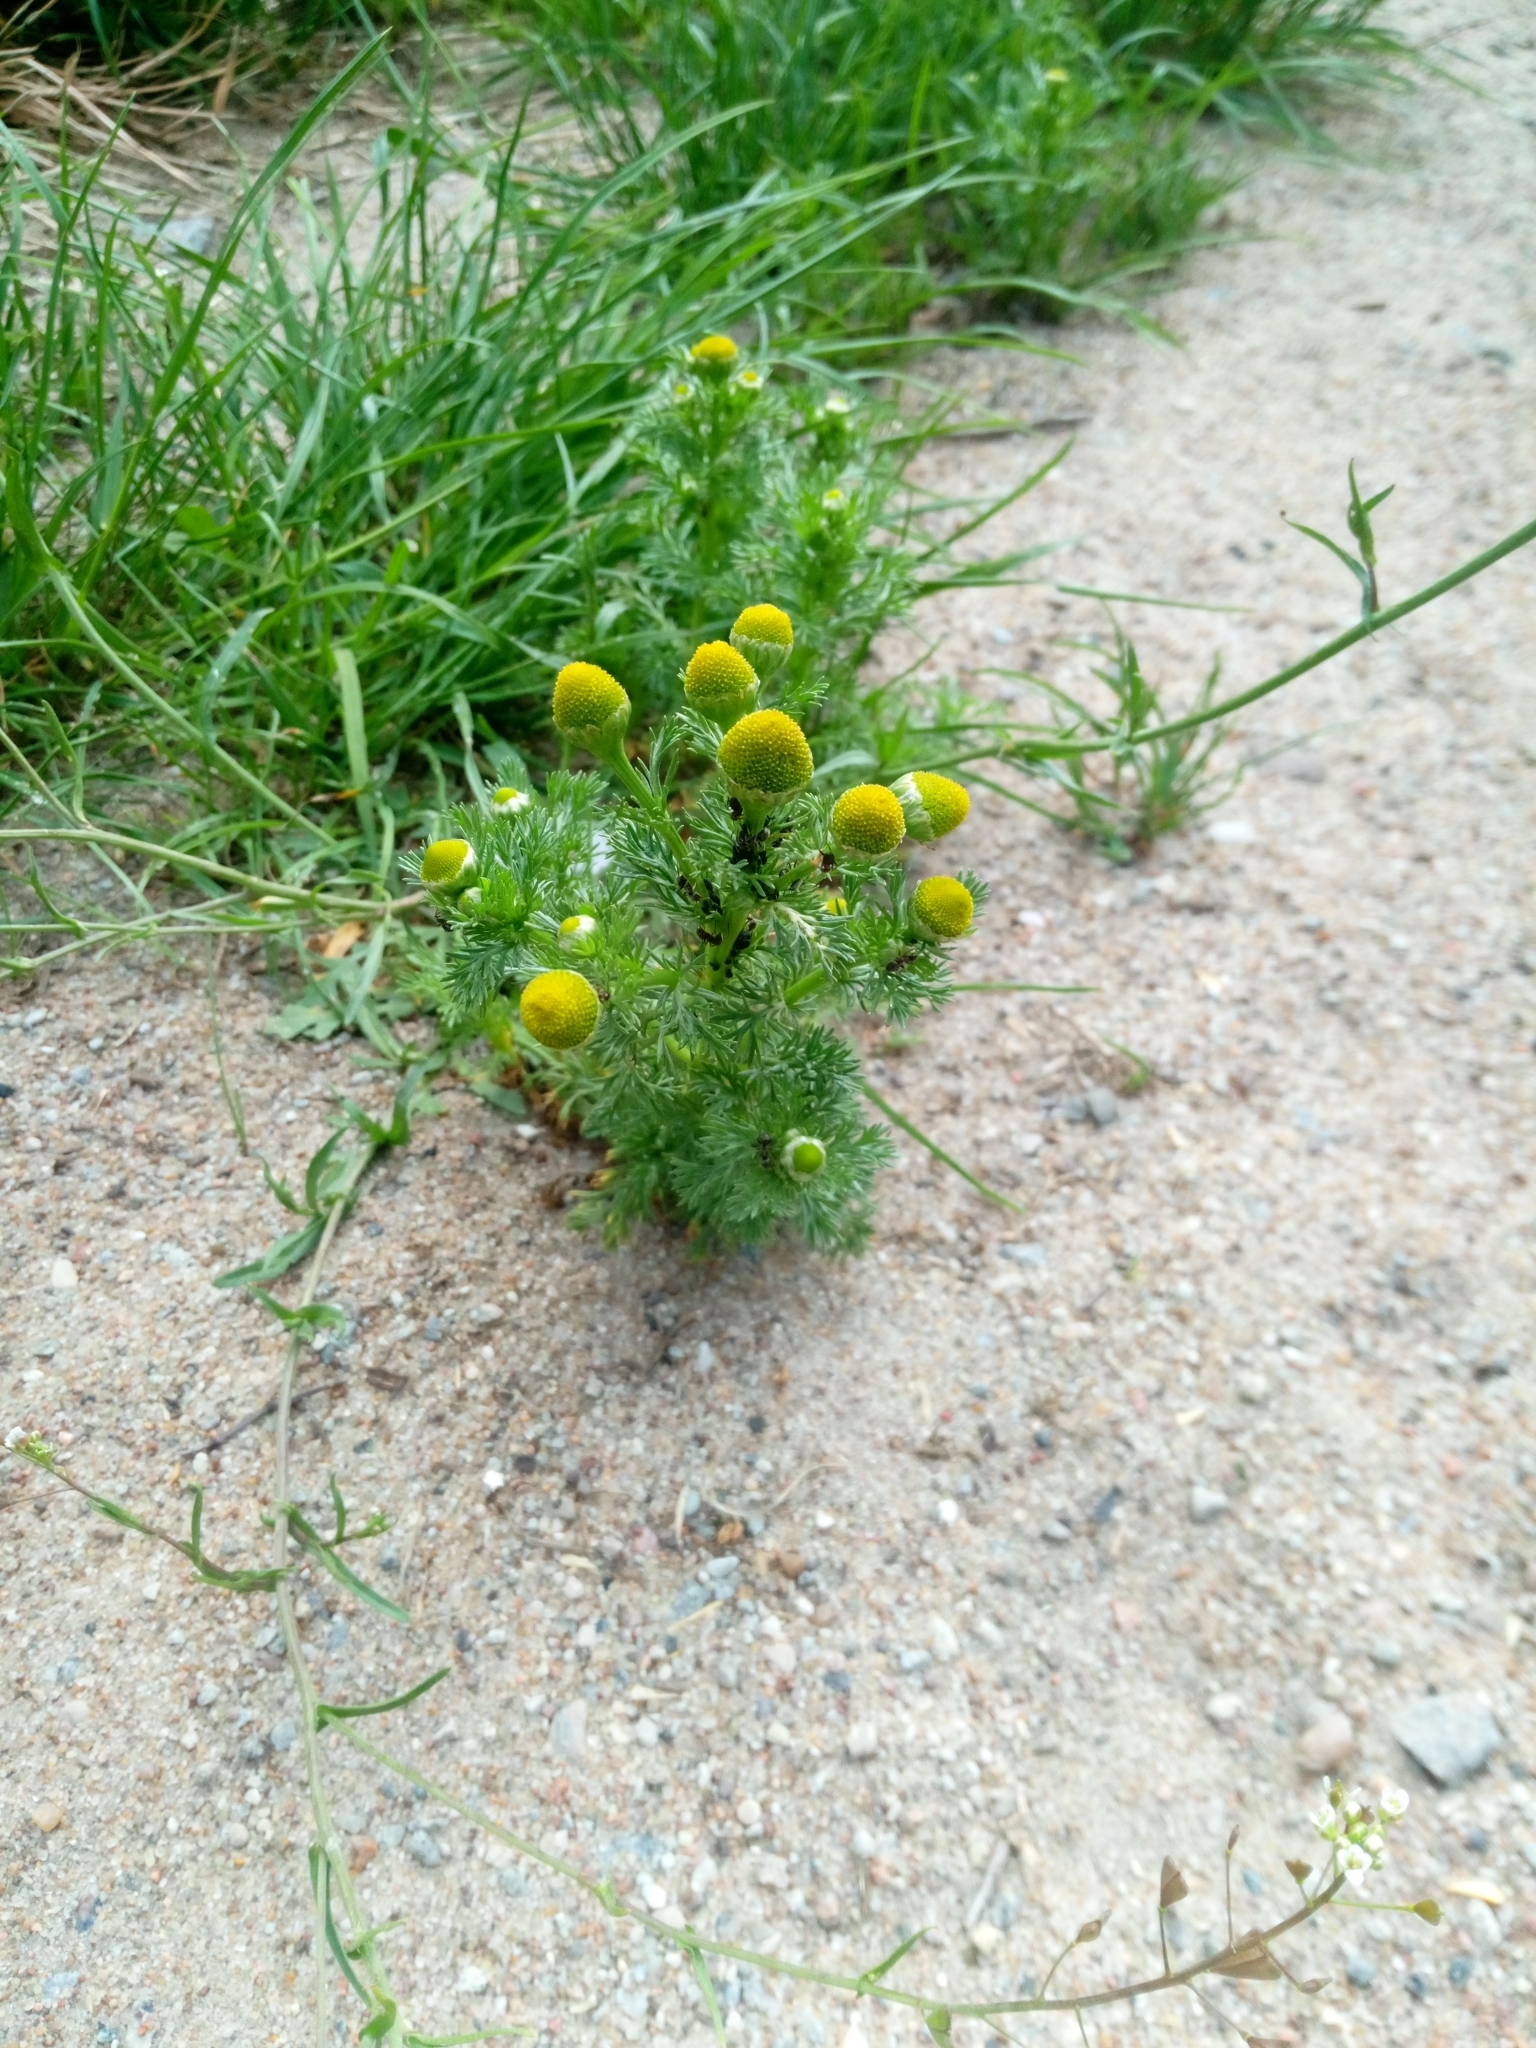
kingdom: Plantae
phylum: Tracheophyta
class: Magnoliopsida
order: Asterales
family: Asteraceae
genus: Matricaria
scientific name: Matricaria discoidea
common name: Disc mayweed
